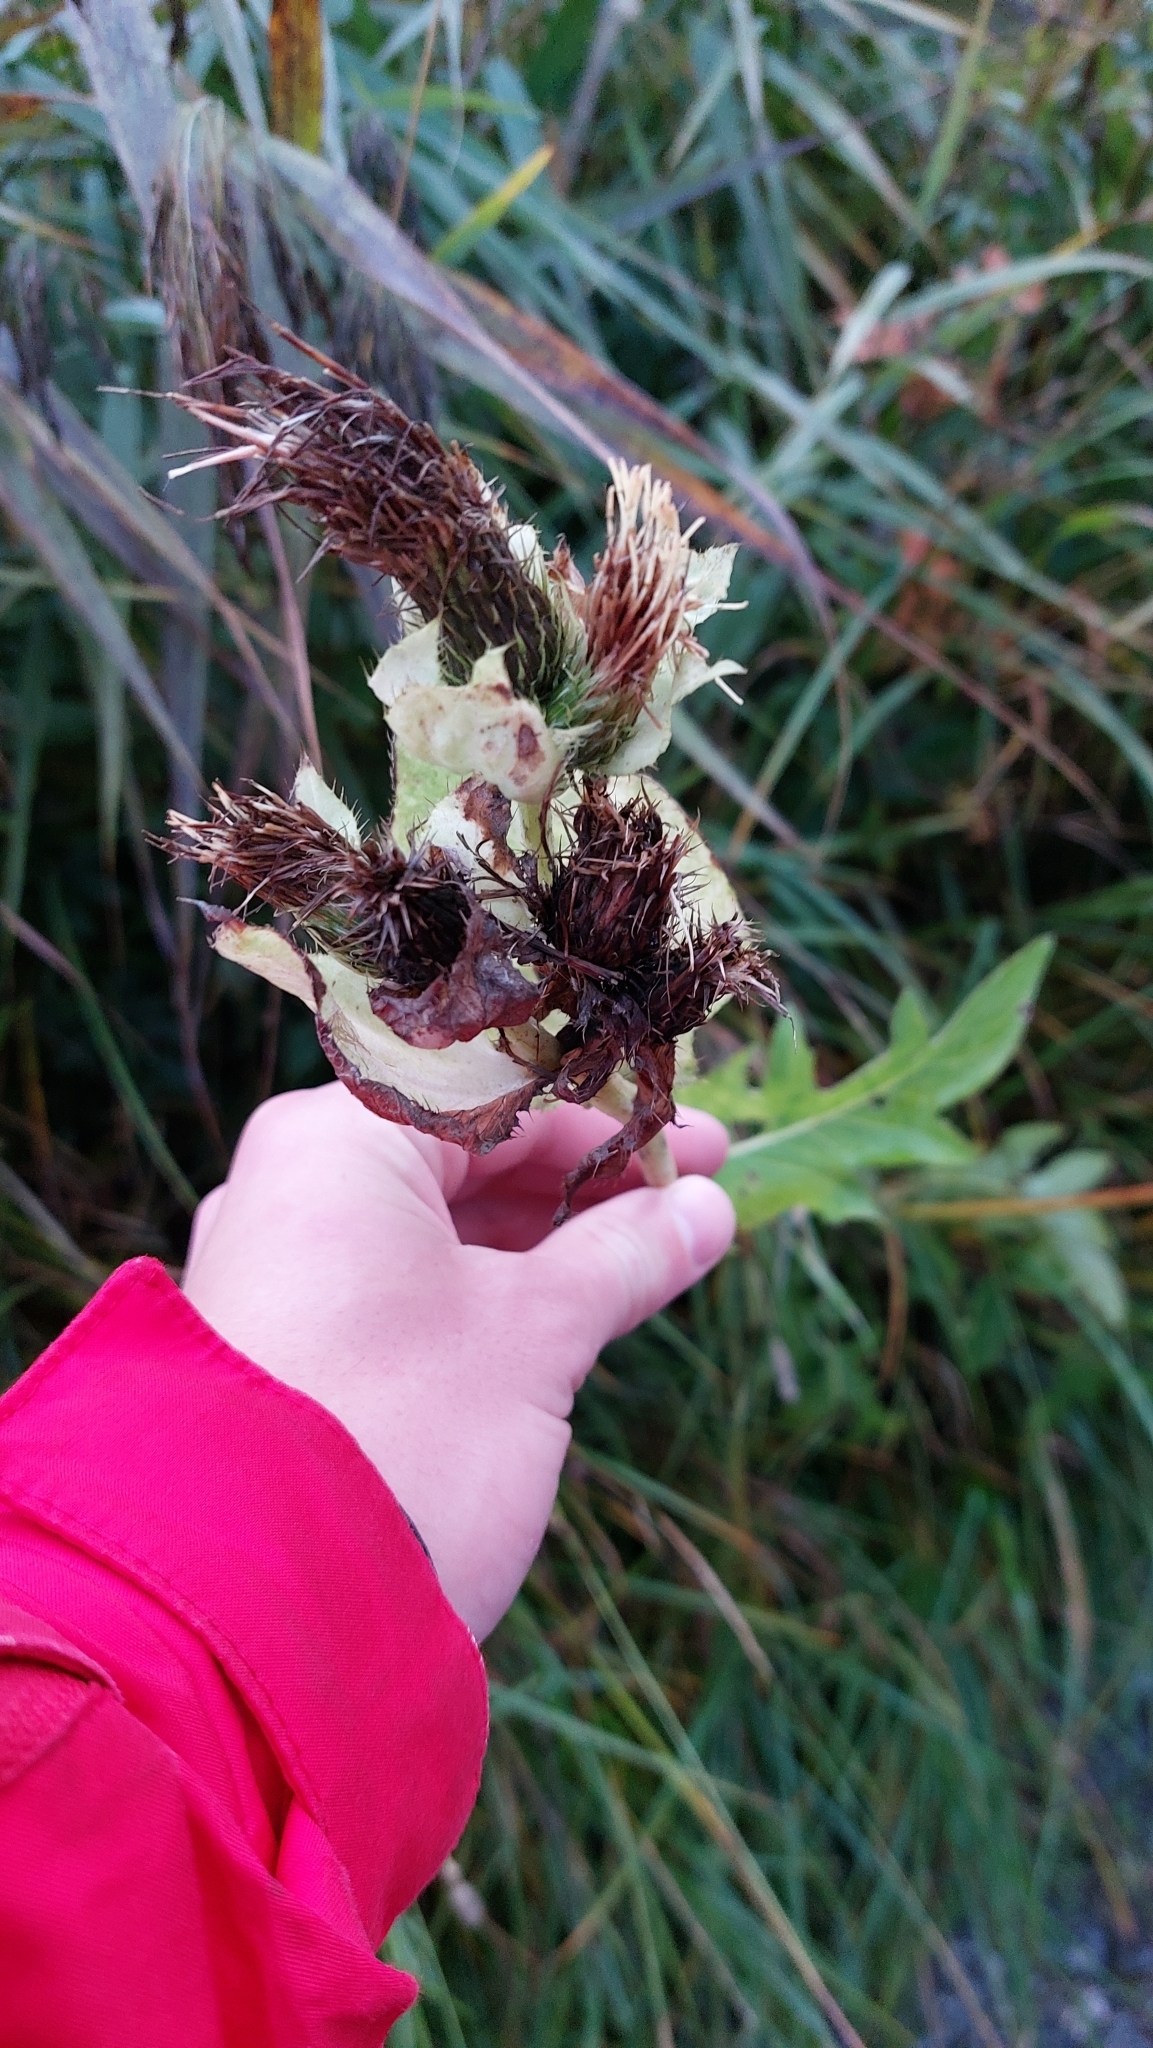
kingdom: Plantae
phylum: Tracheophyta
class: Magnoliopsida
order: Asterales
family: Asteraceae
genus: Cirsium
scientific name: Cirsium oleraceum
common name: Cabbage thistle
